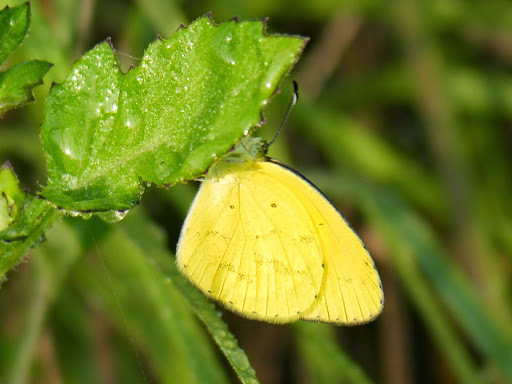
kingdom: Animalia
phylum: Arthropoda
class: Insecta
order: Lepidoptera
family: Pieridae
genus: Eurema
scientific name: Eurema brigitta
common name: Small grass yellow
